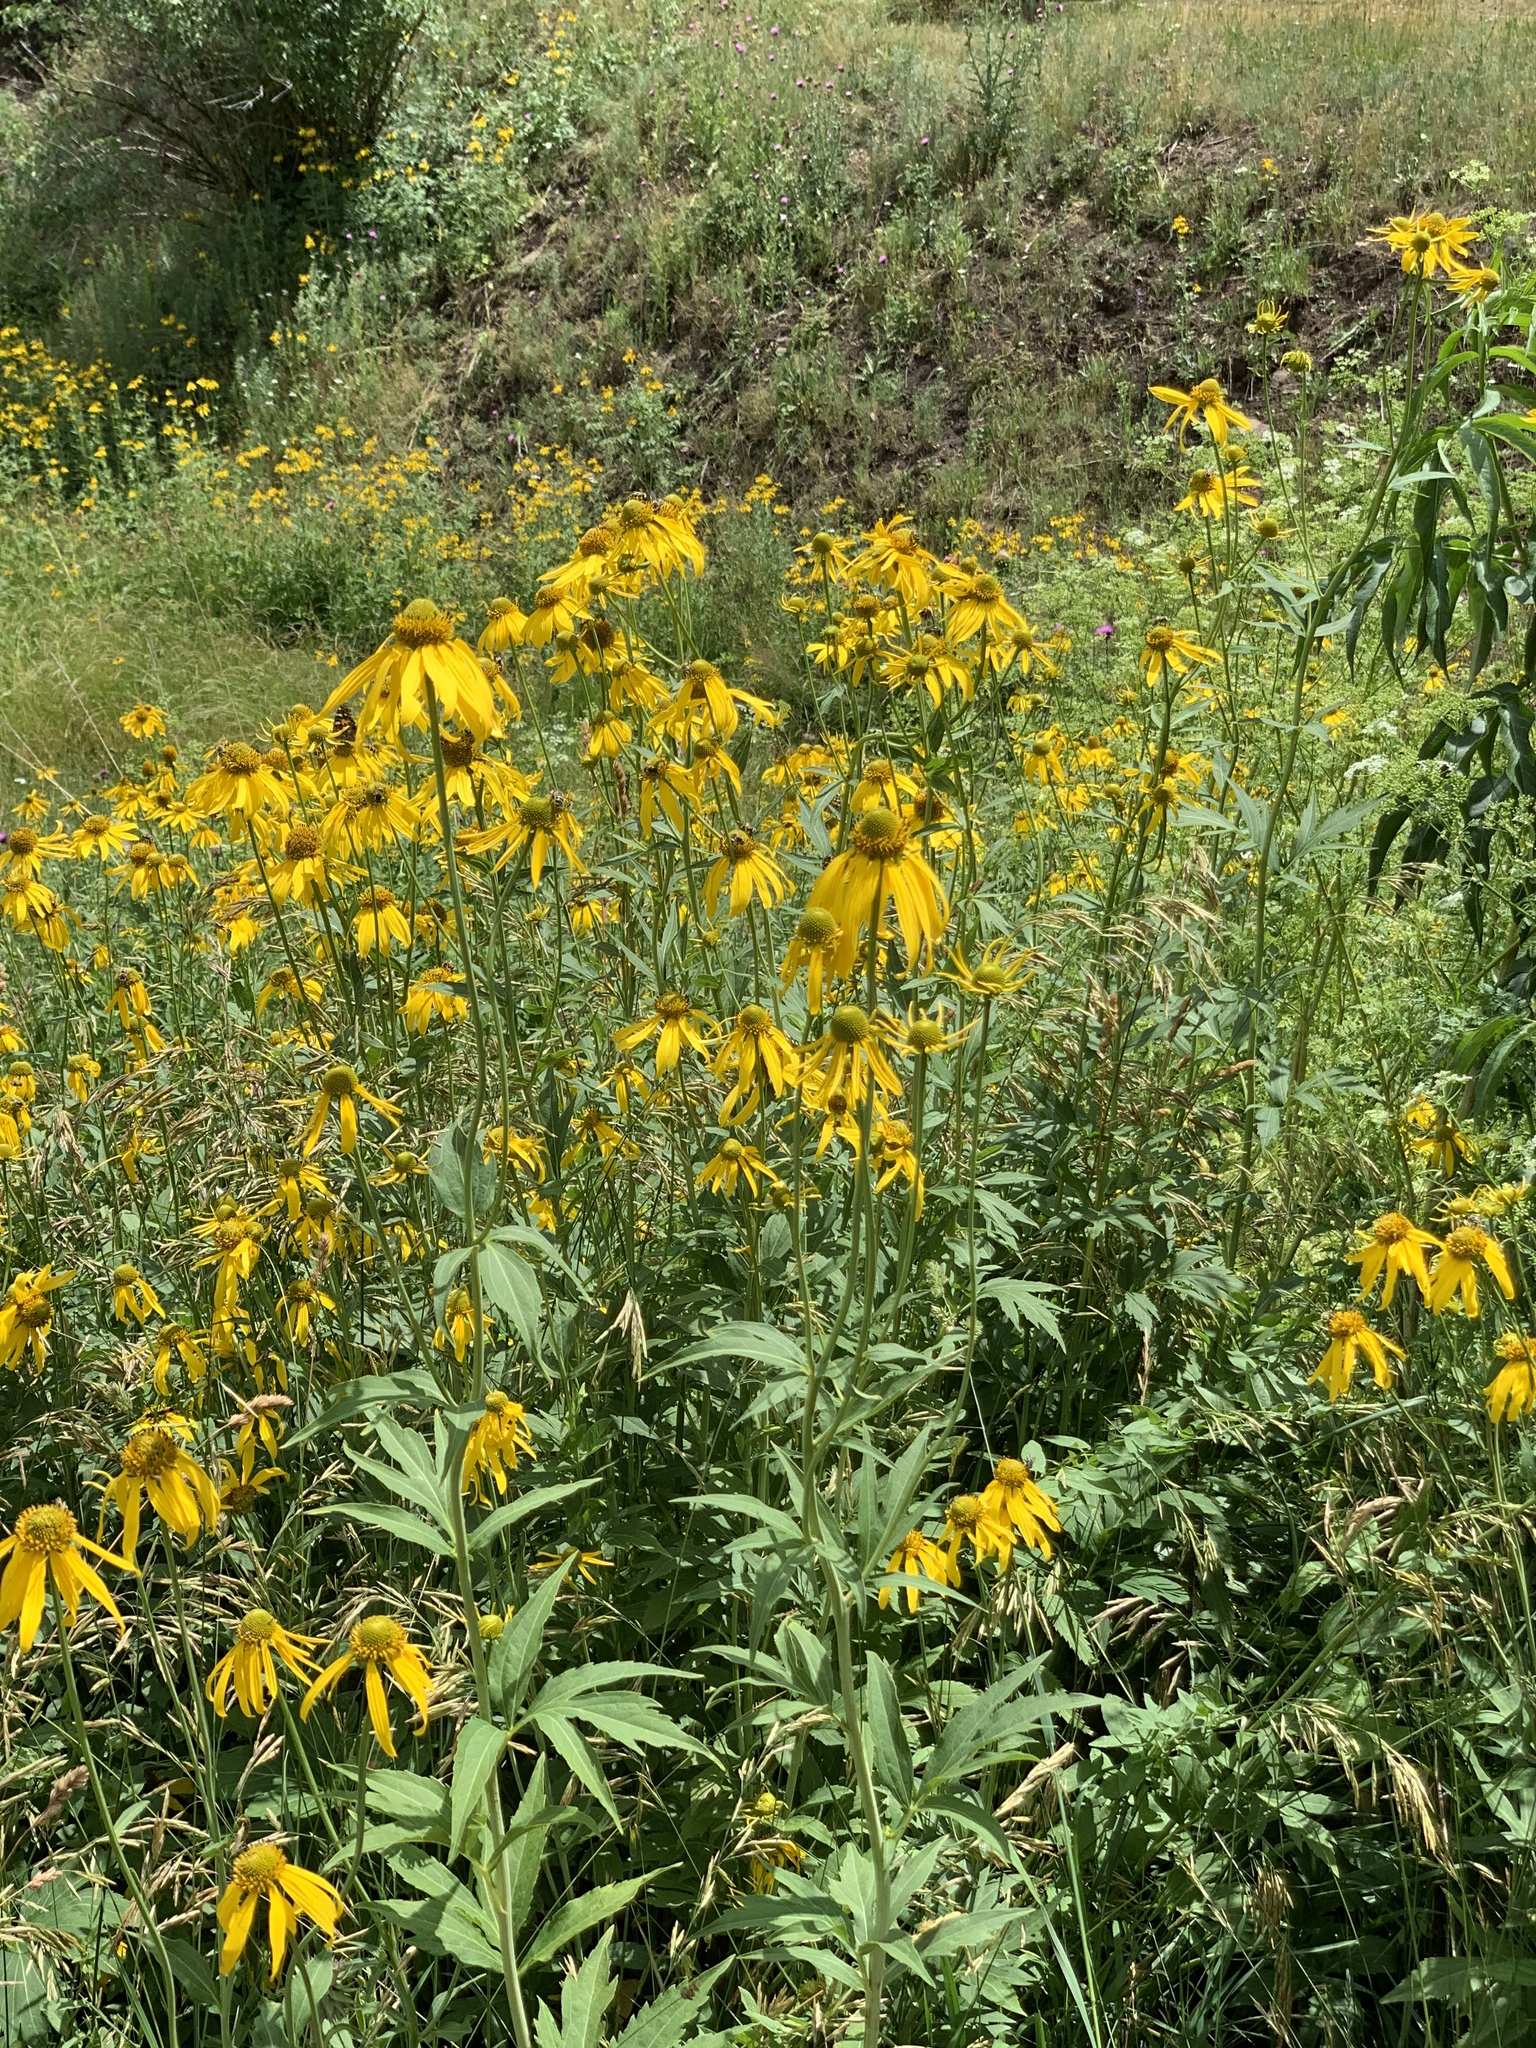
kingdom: Plantae
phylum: Tracheophyta
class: Magnoliopsida
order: Asterales
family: Asteraceae
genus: Rudbeckia
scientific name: Rudbeckia laciniata
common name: Coneflower
